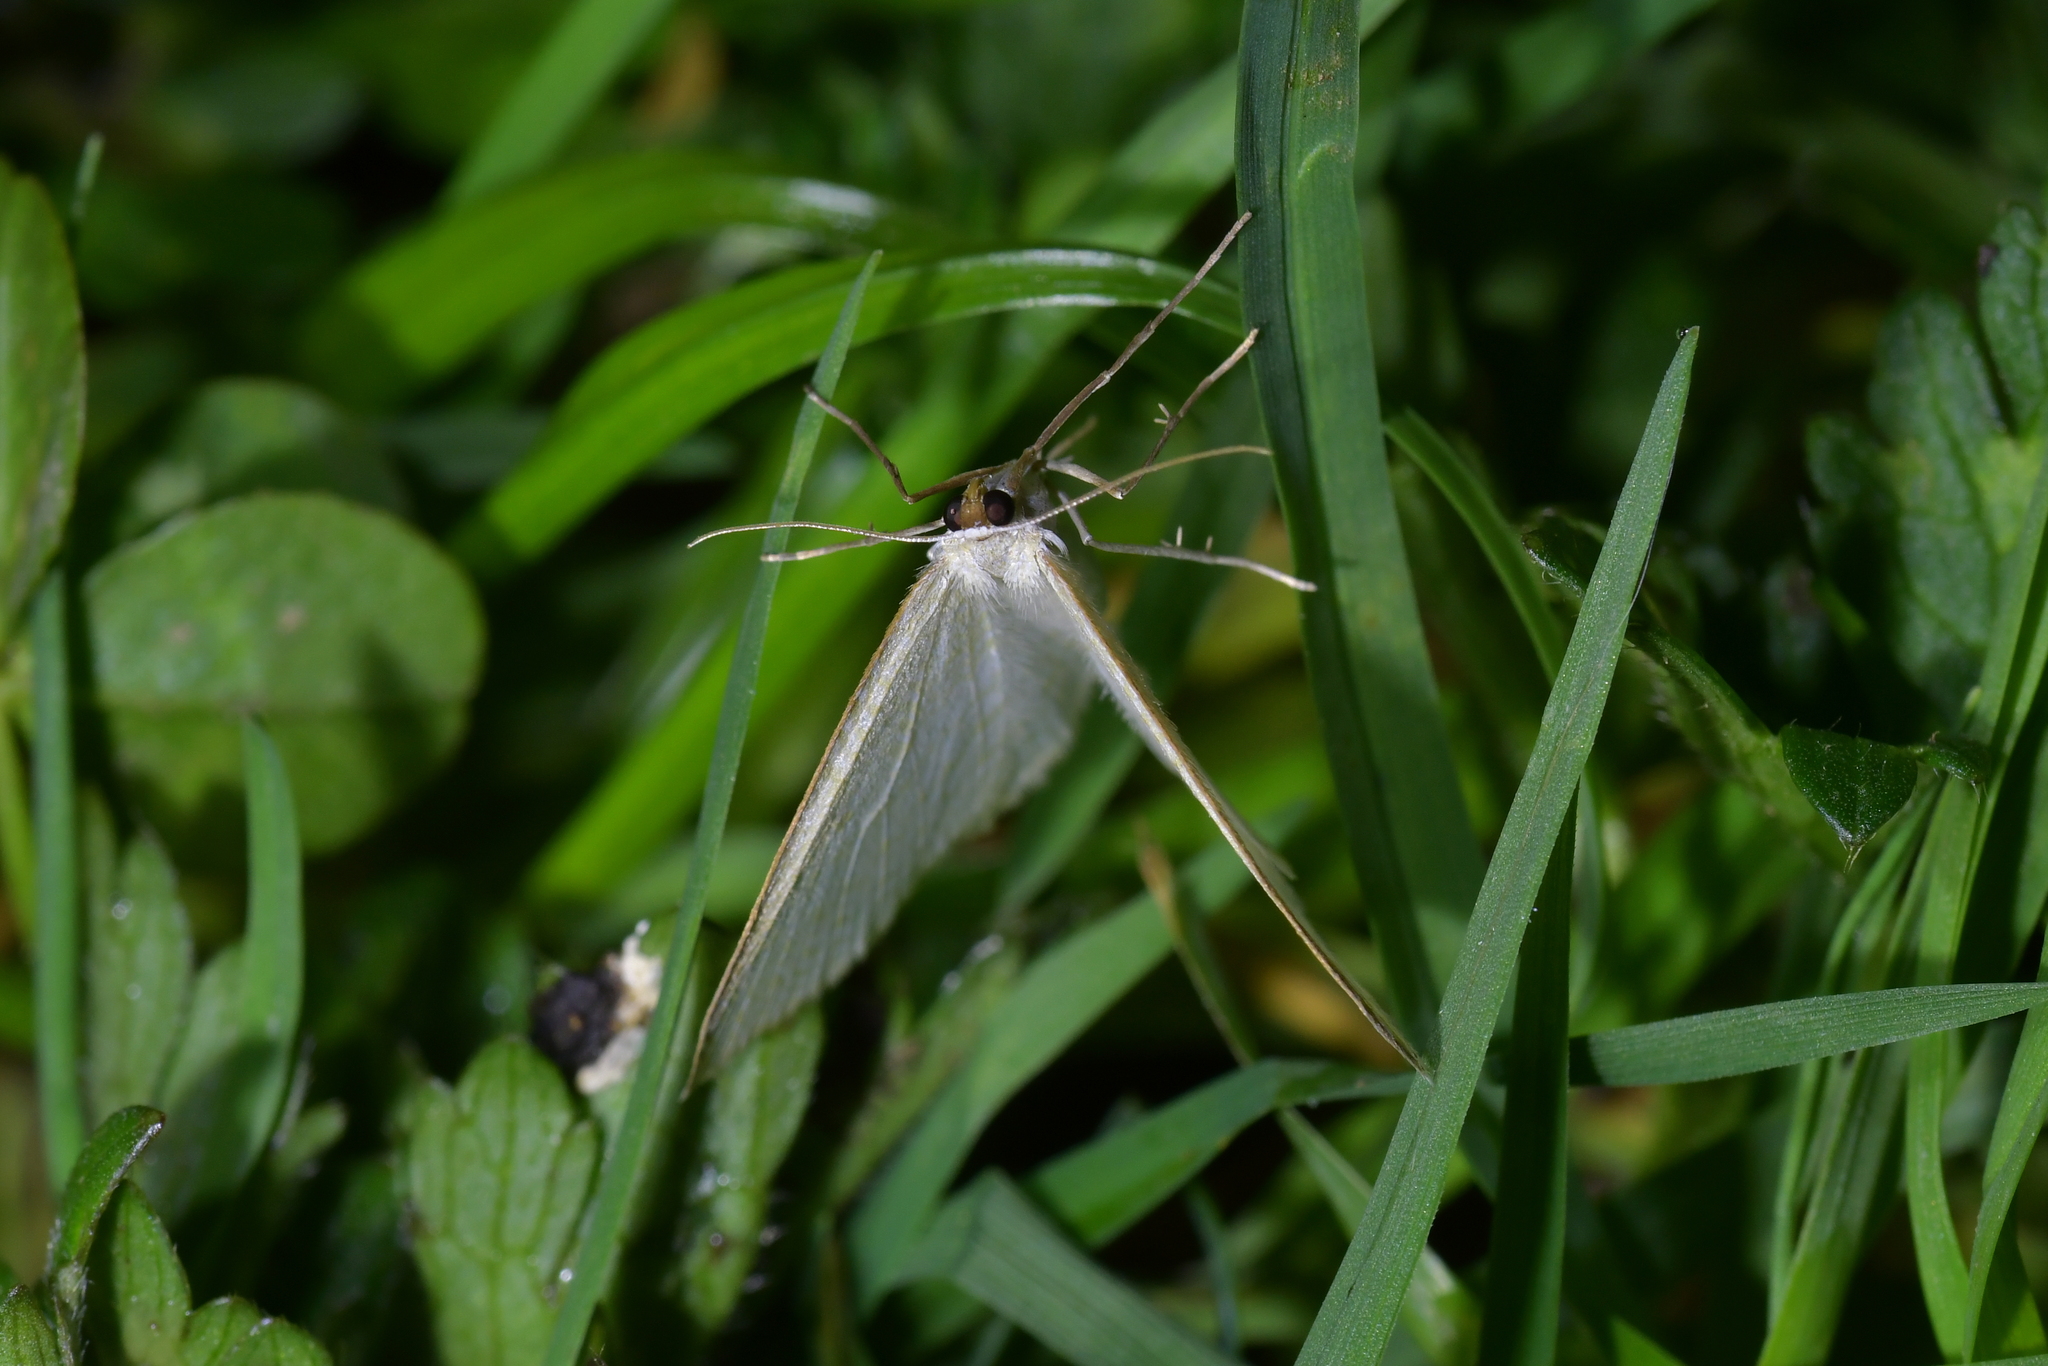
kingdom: Animalia
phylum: Arthropoda
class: Insecta
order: Lepidoptera
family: Geometridae
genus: Poecilasthena
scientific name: Poecilasthena pulchraria
